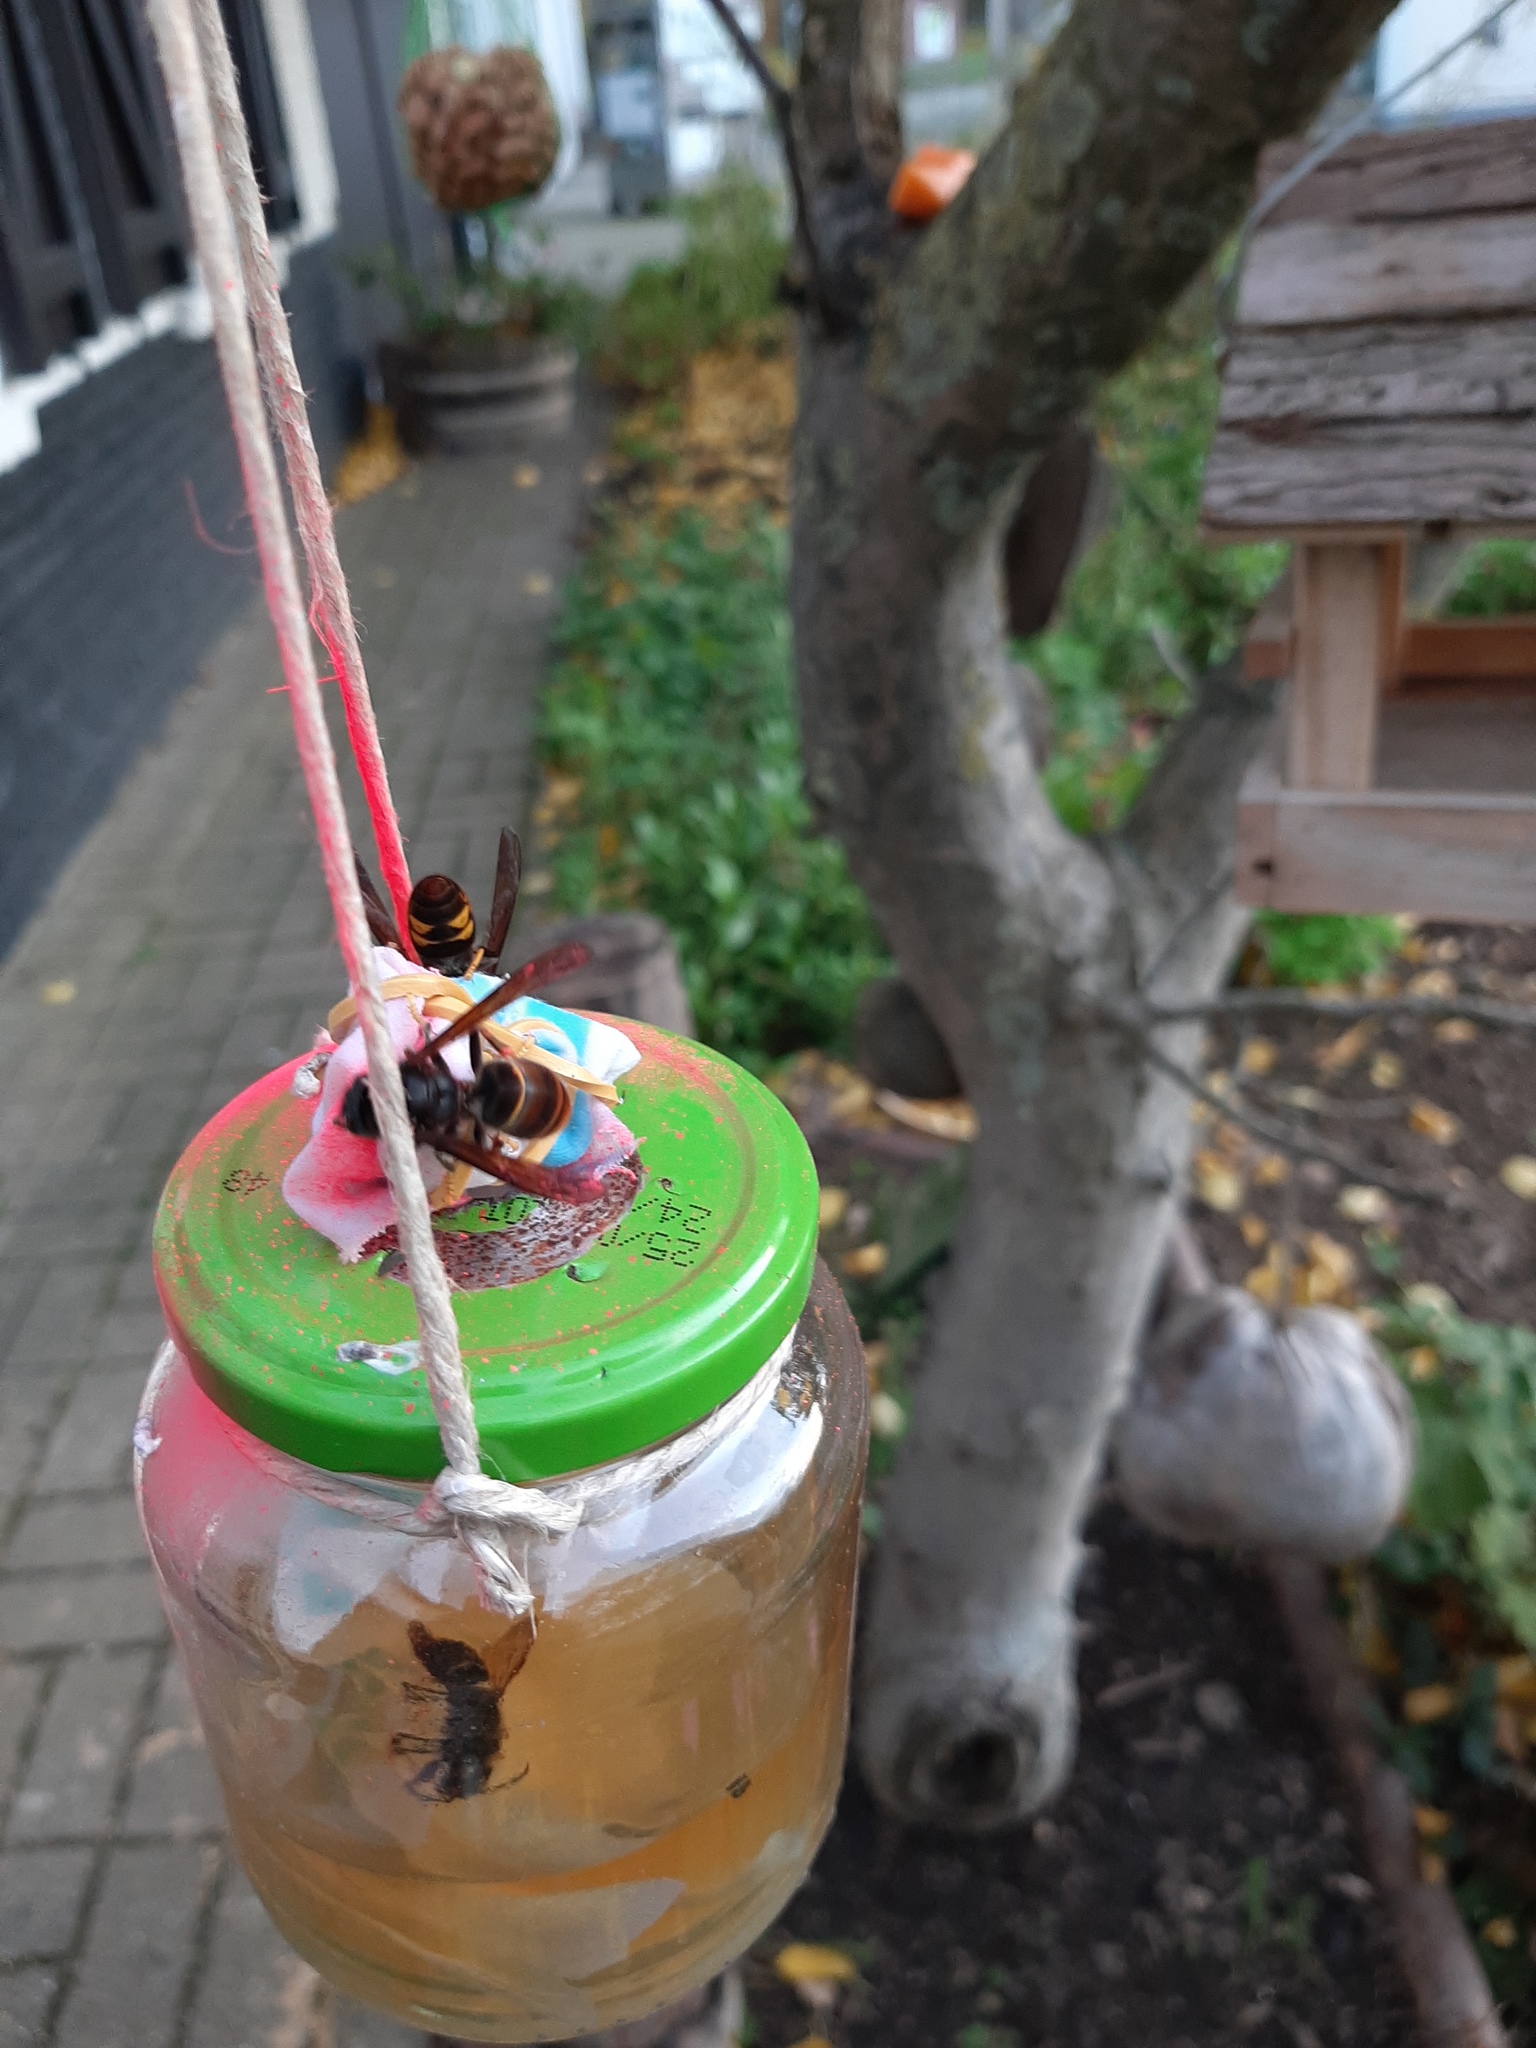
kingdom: Animalia
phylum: Arthropoda
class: Insecta
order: Hymenoptera
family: Vespidae
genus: Vespa
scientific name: Vespa velutina
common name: Asian hornet
